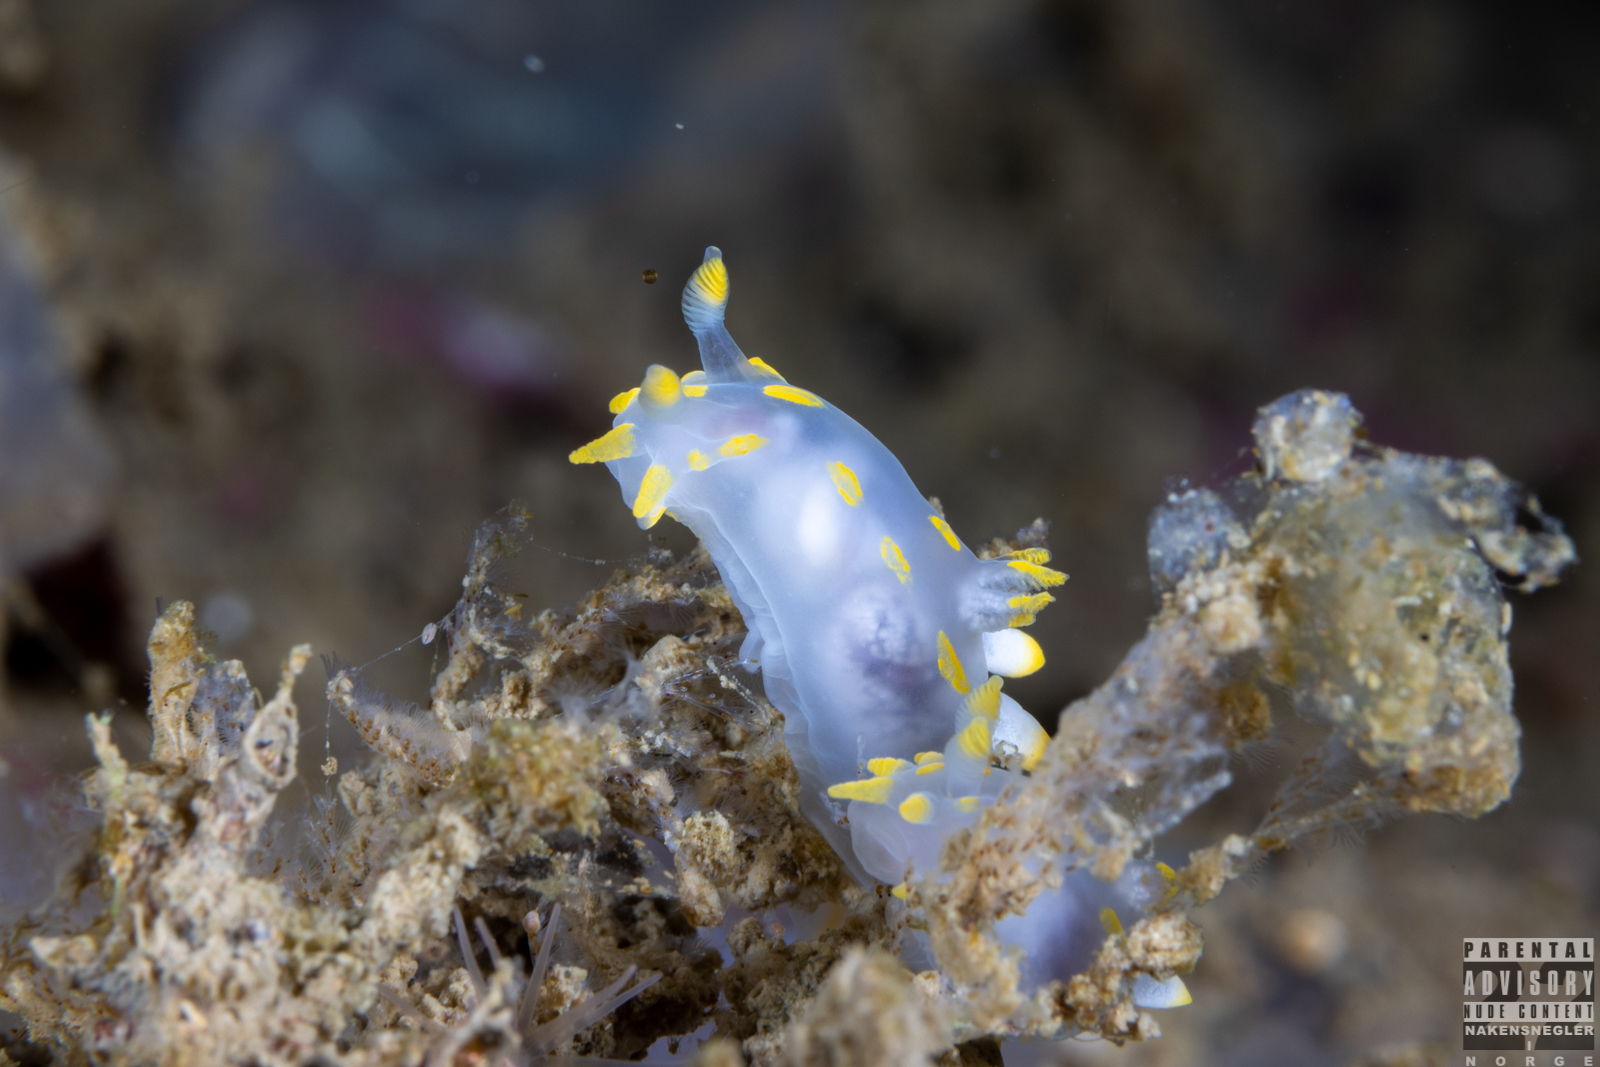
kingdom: Animalia
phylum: Mollusca
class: Gastropoda
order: Nudibranchia
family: Polyceridae
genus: Polycera
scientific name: Polycera quadrilineata
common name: Four-striped polycera
